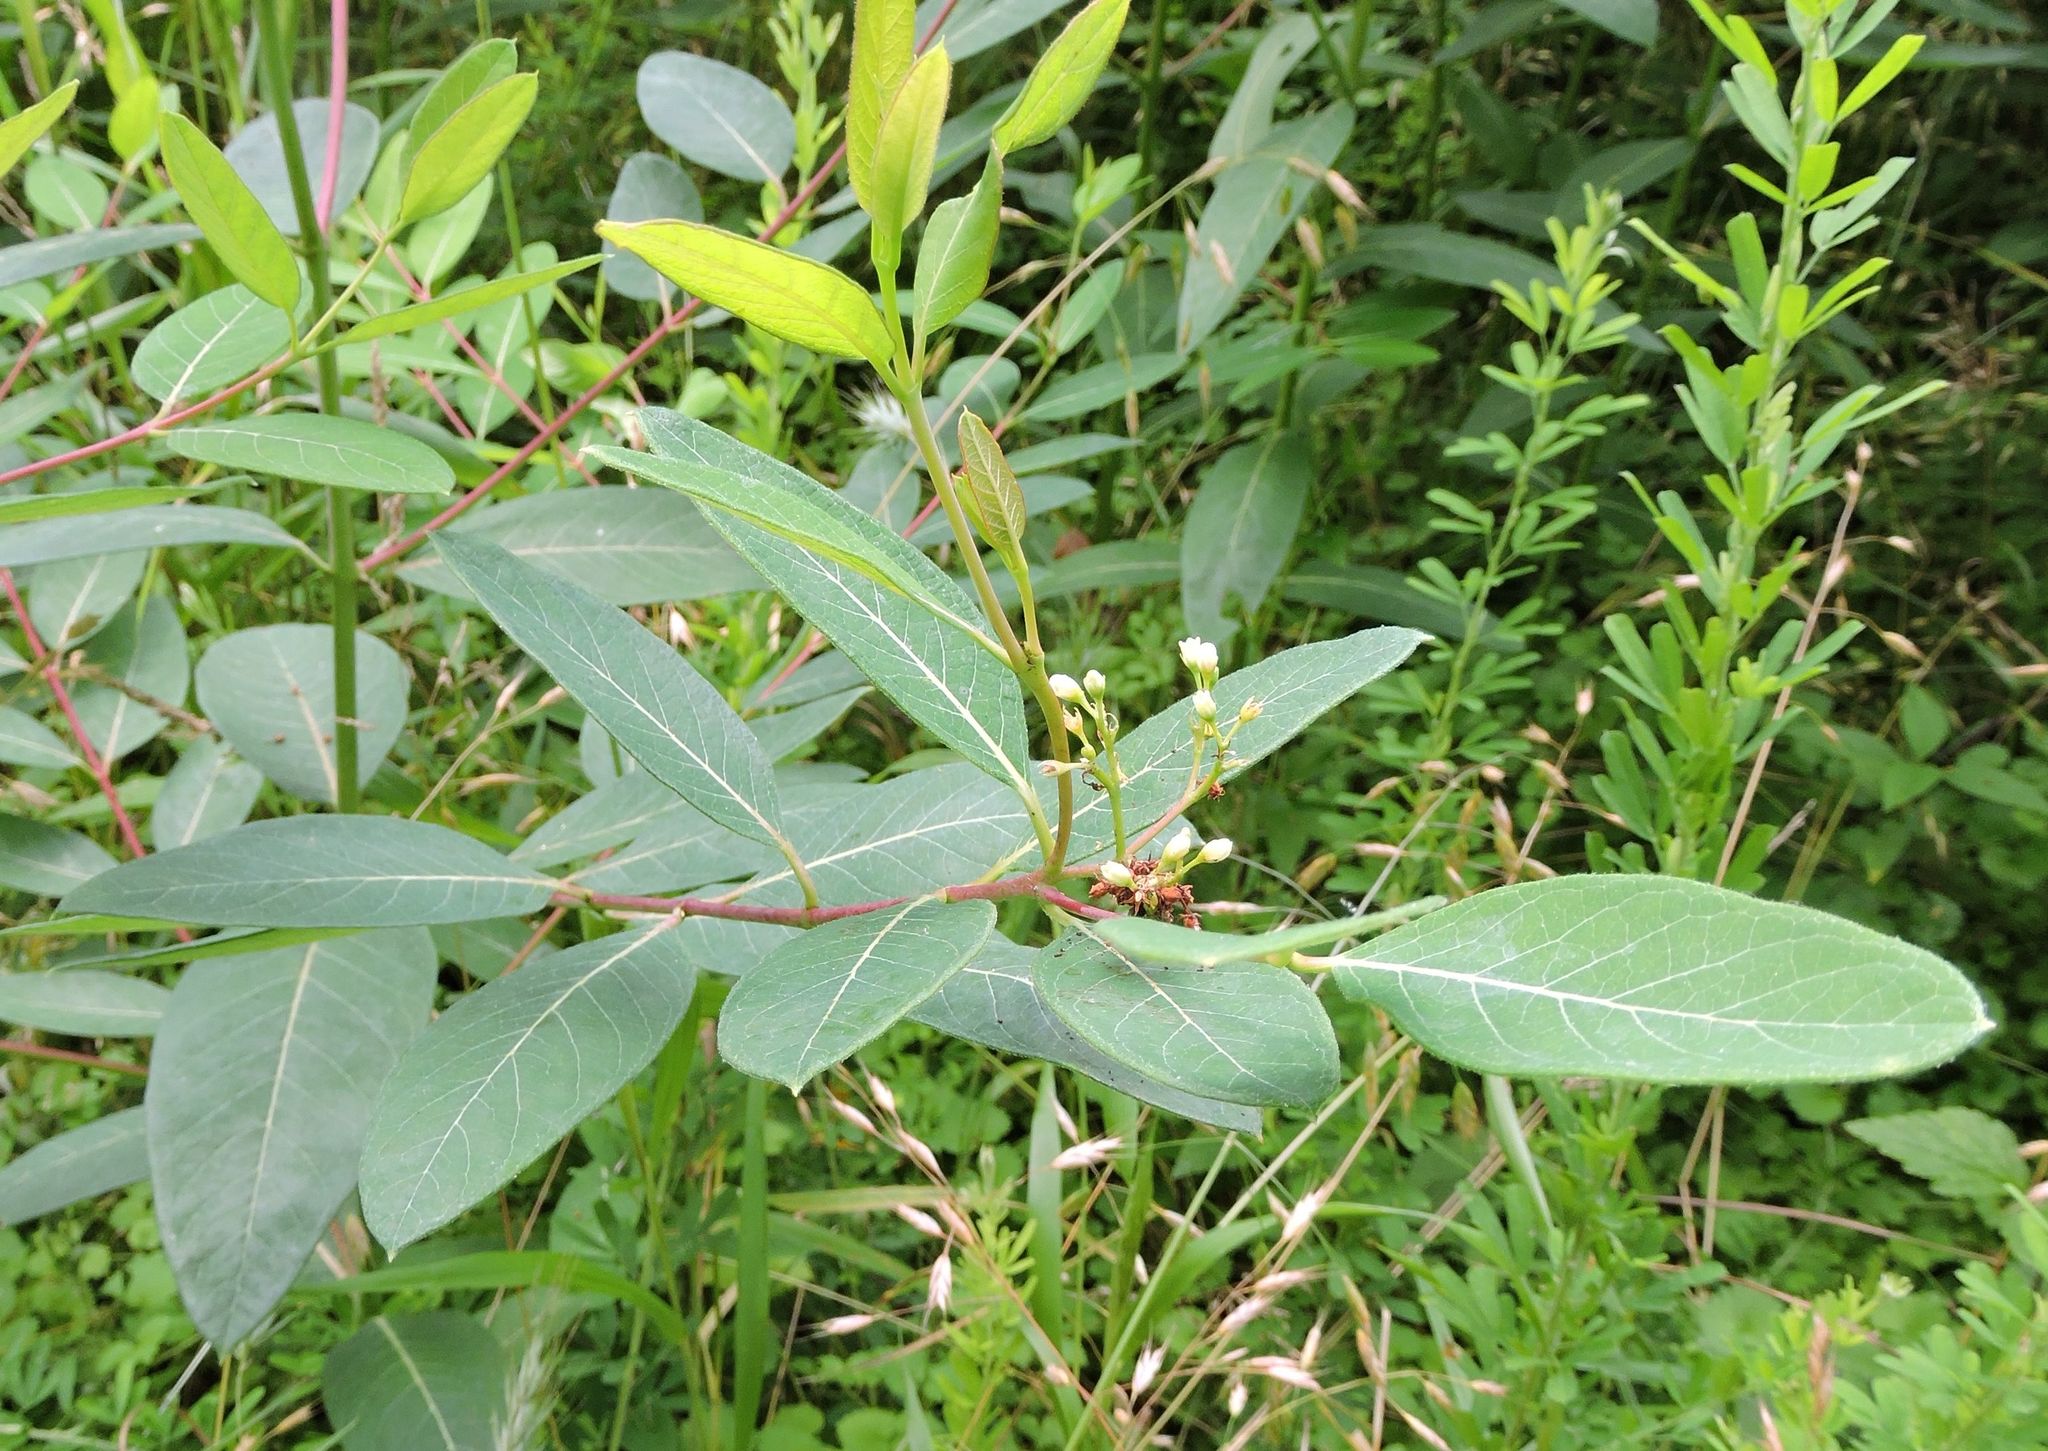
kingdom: Plantae
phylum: Tracheophyta
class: Magnoliopsida
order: Gentianales
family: Apocynaceae
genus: Apocynum
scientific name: Apocynum cannabinum
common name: Hemp dogbane
